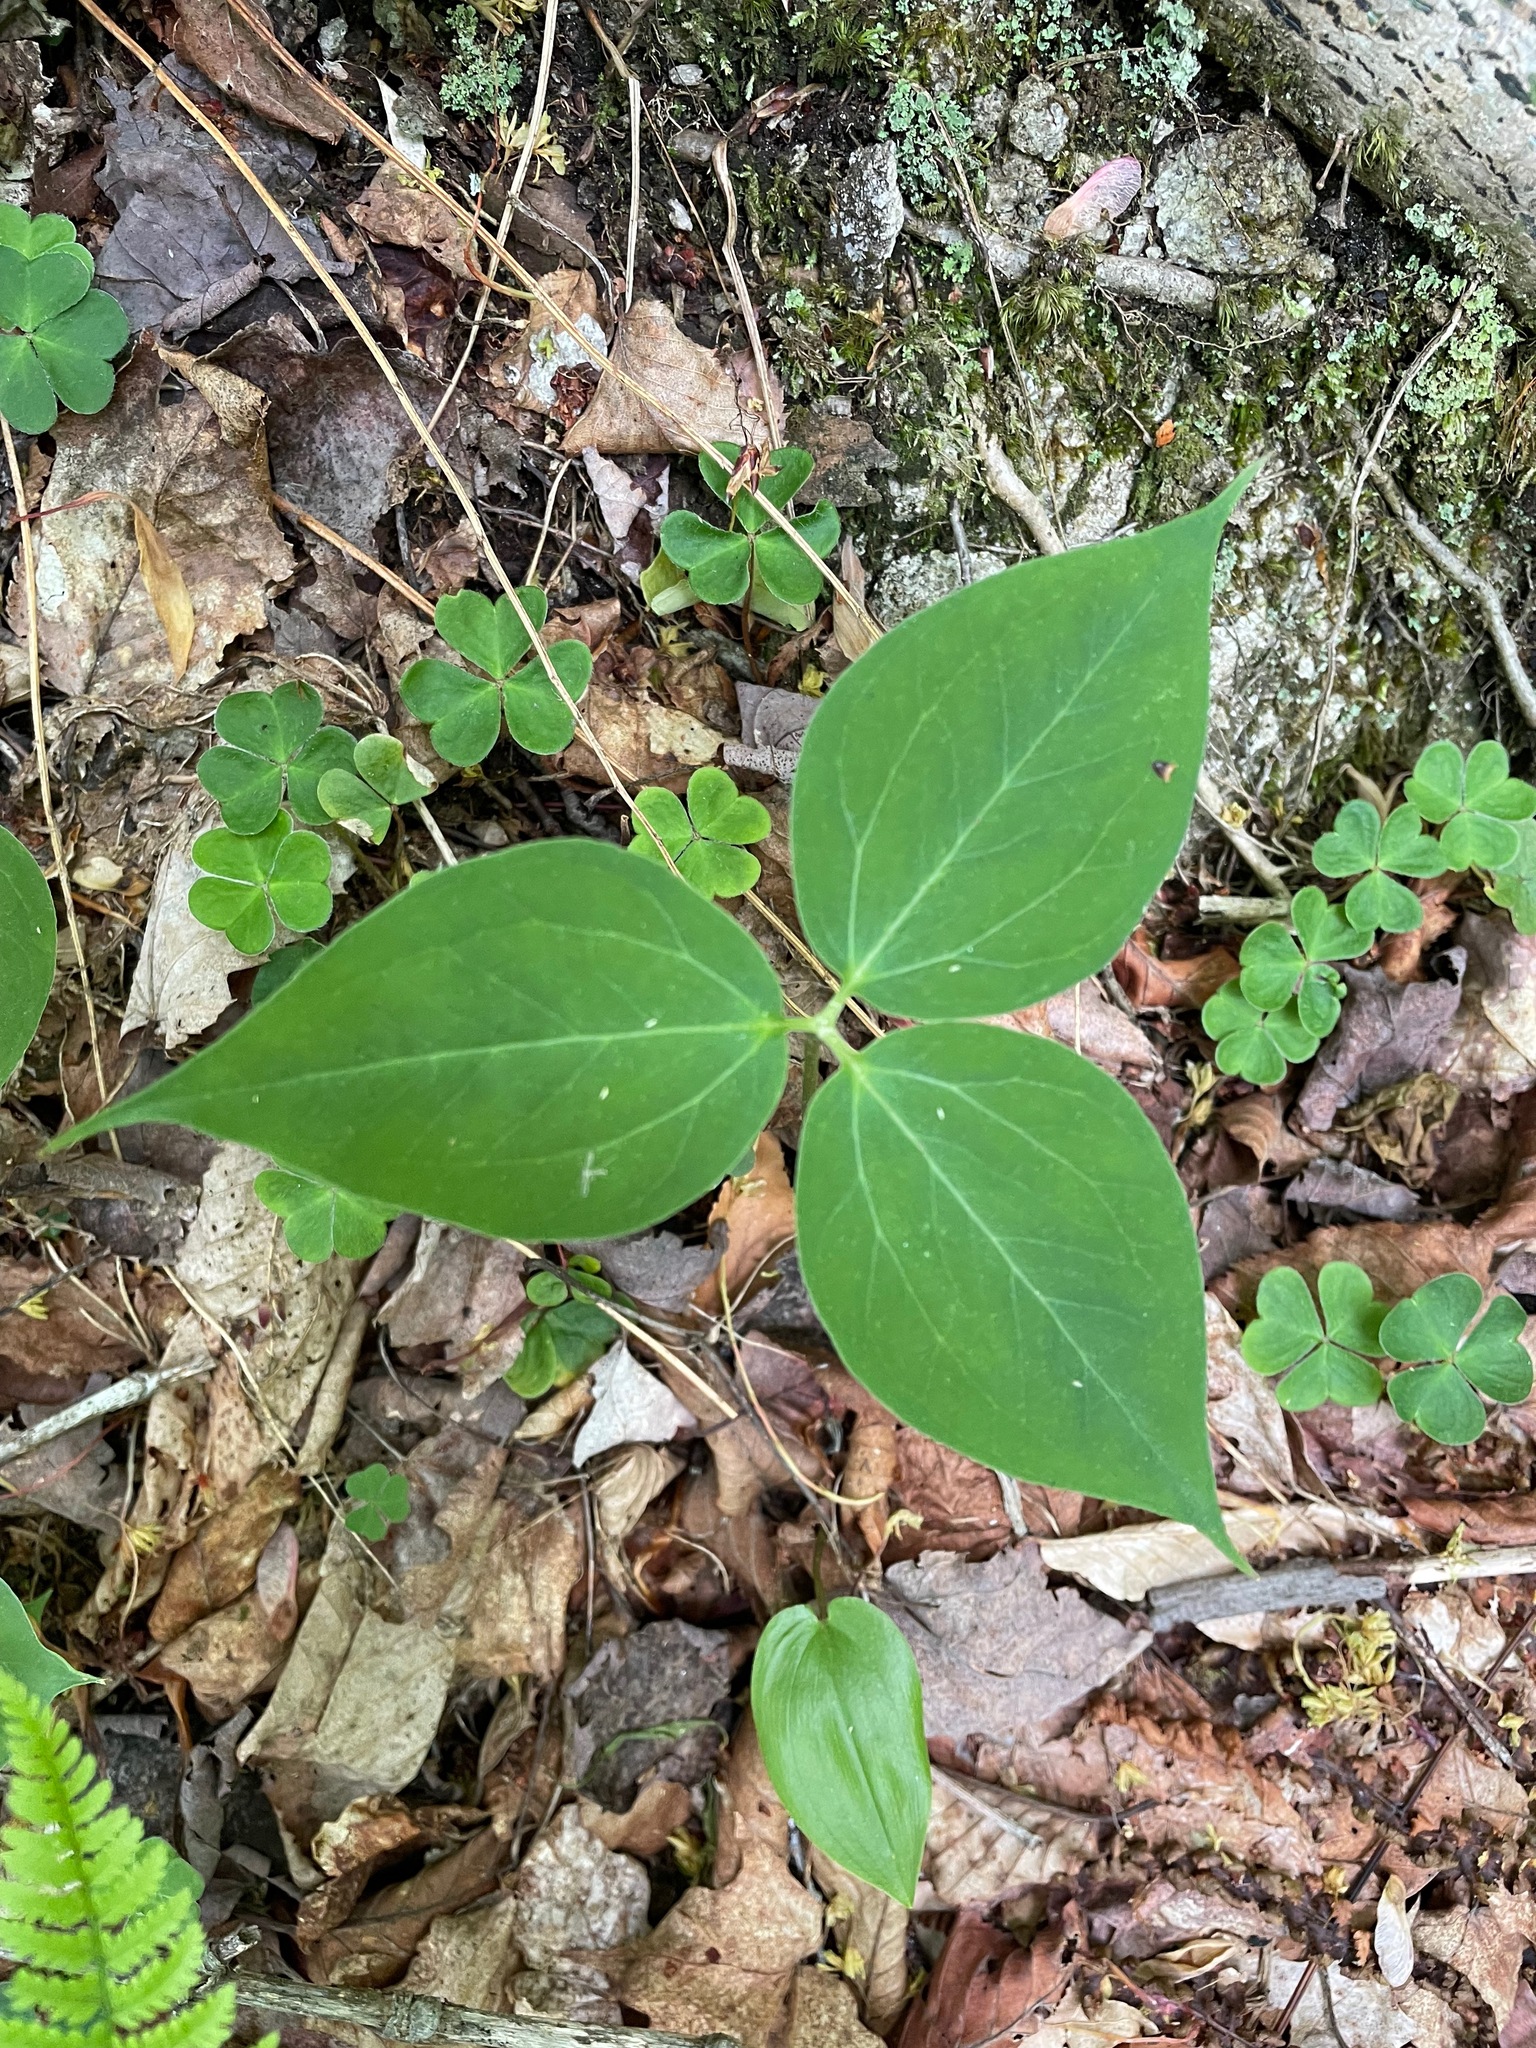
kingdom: Plantae
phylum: Tracheophyta
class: Liliopsida
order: Liliales
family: Melanthiaceae
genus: Trillium
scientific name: Trillium undulatum
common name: Paint trillium
